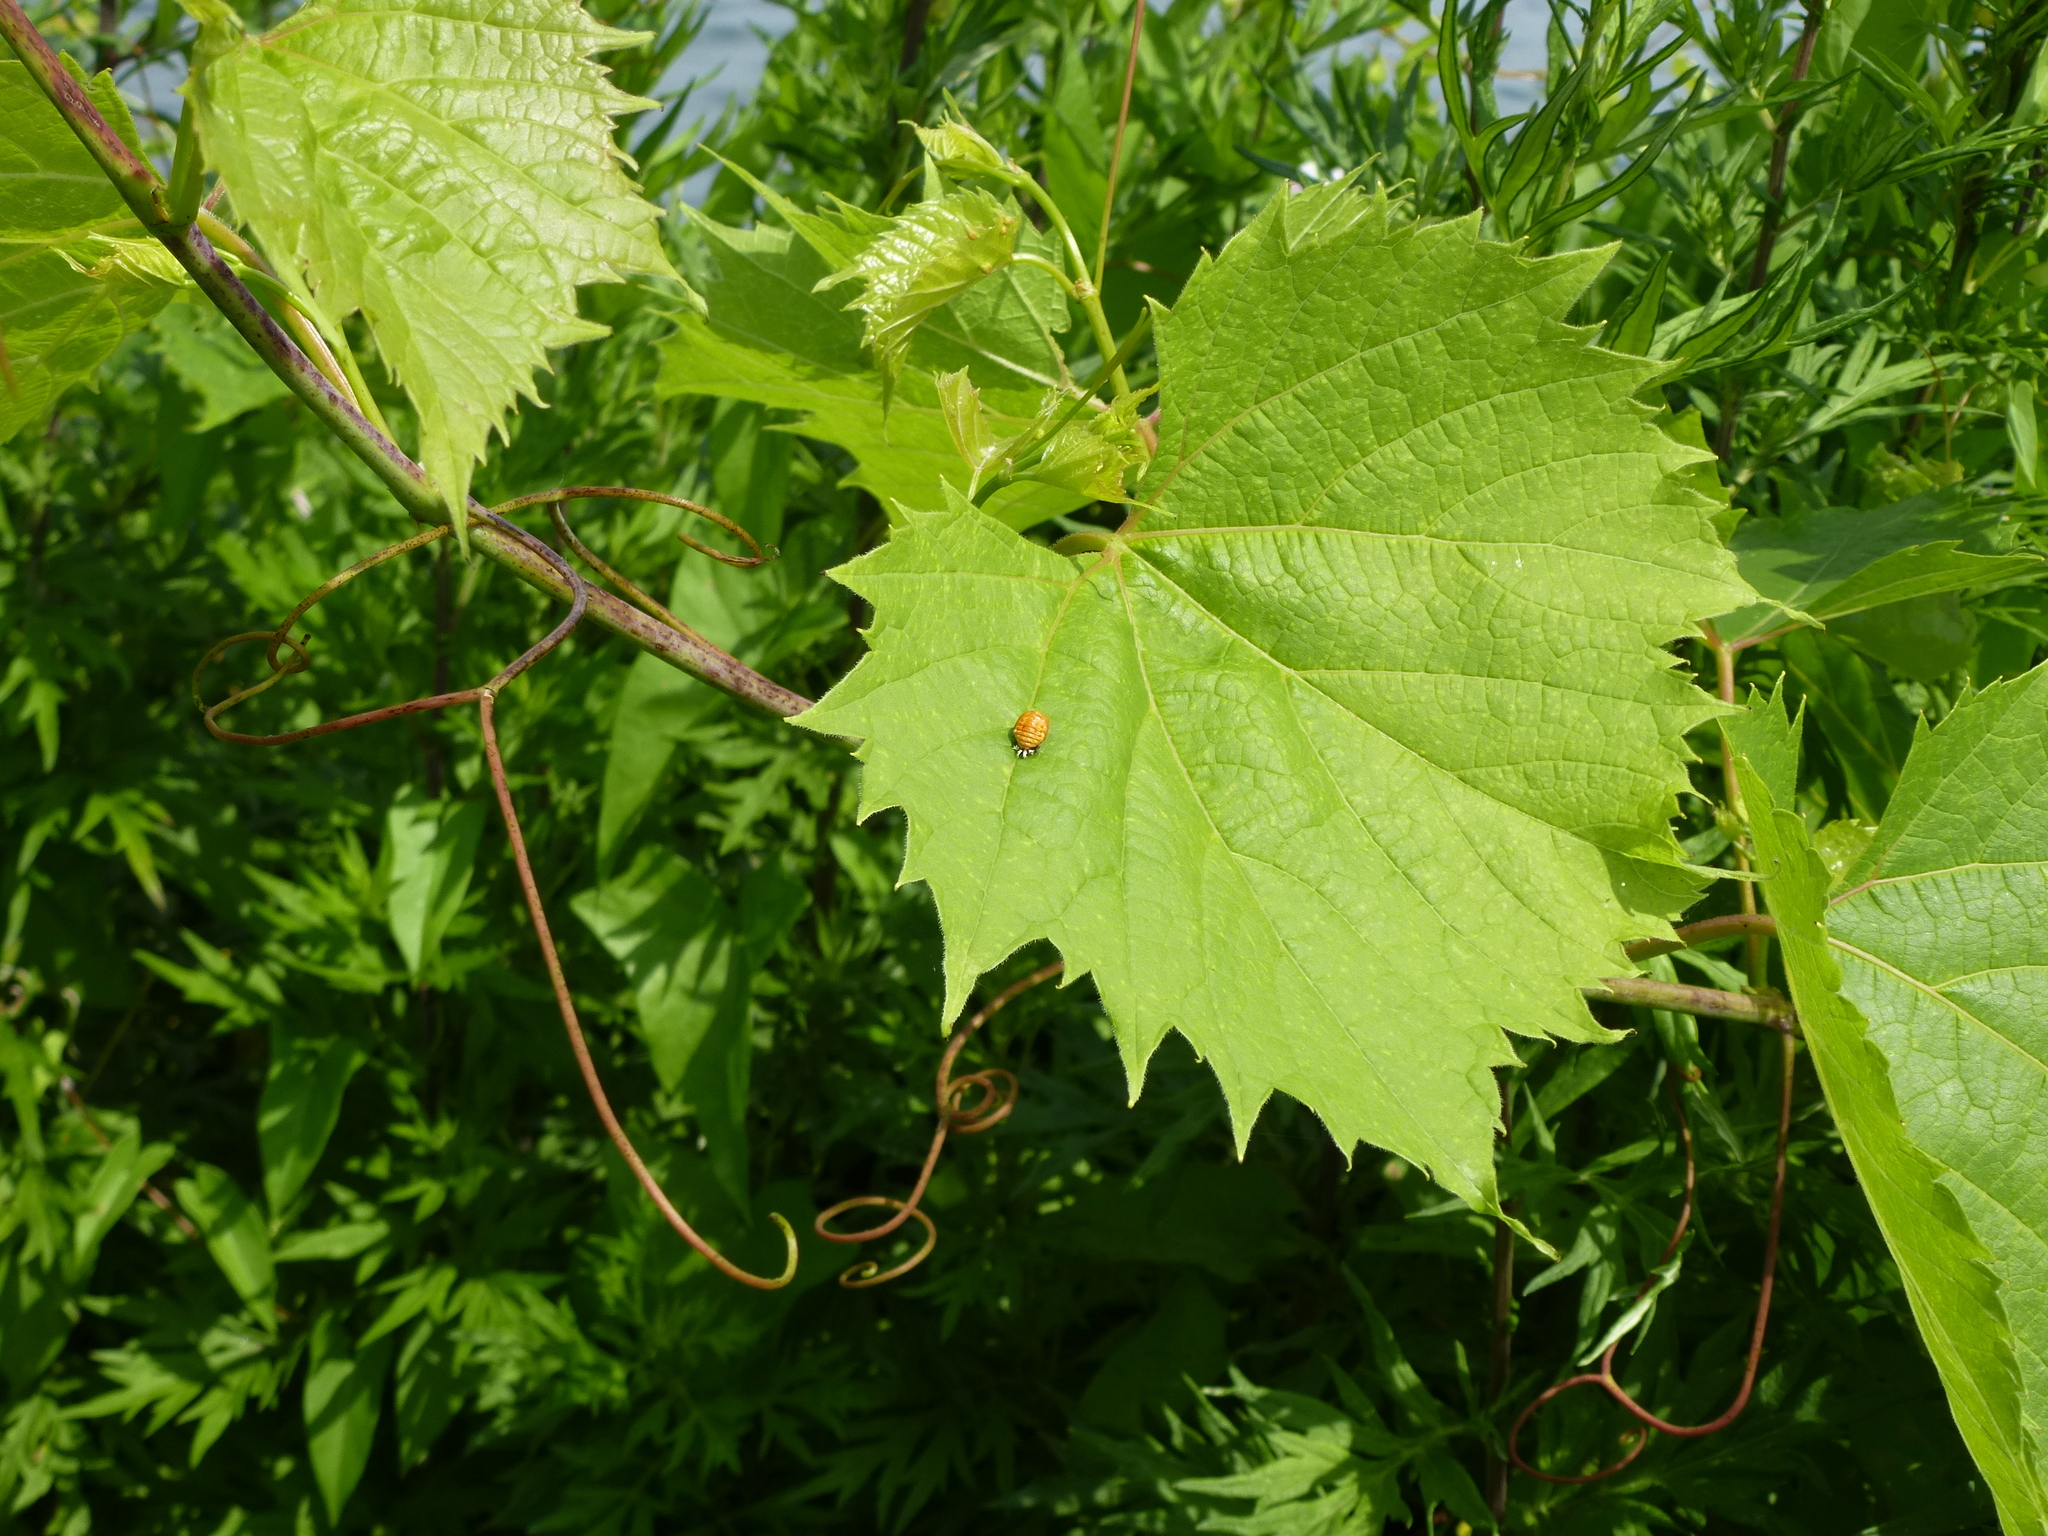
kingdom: Animalia
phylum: Arthropoda
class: Insecta
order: Coleoptera
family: Coccinellidae
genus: Harmonia
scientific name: Harmonia axyridis
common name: Harlequin ladybird
